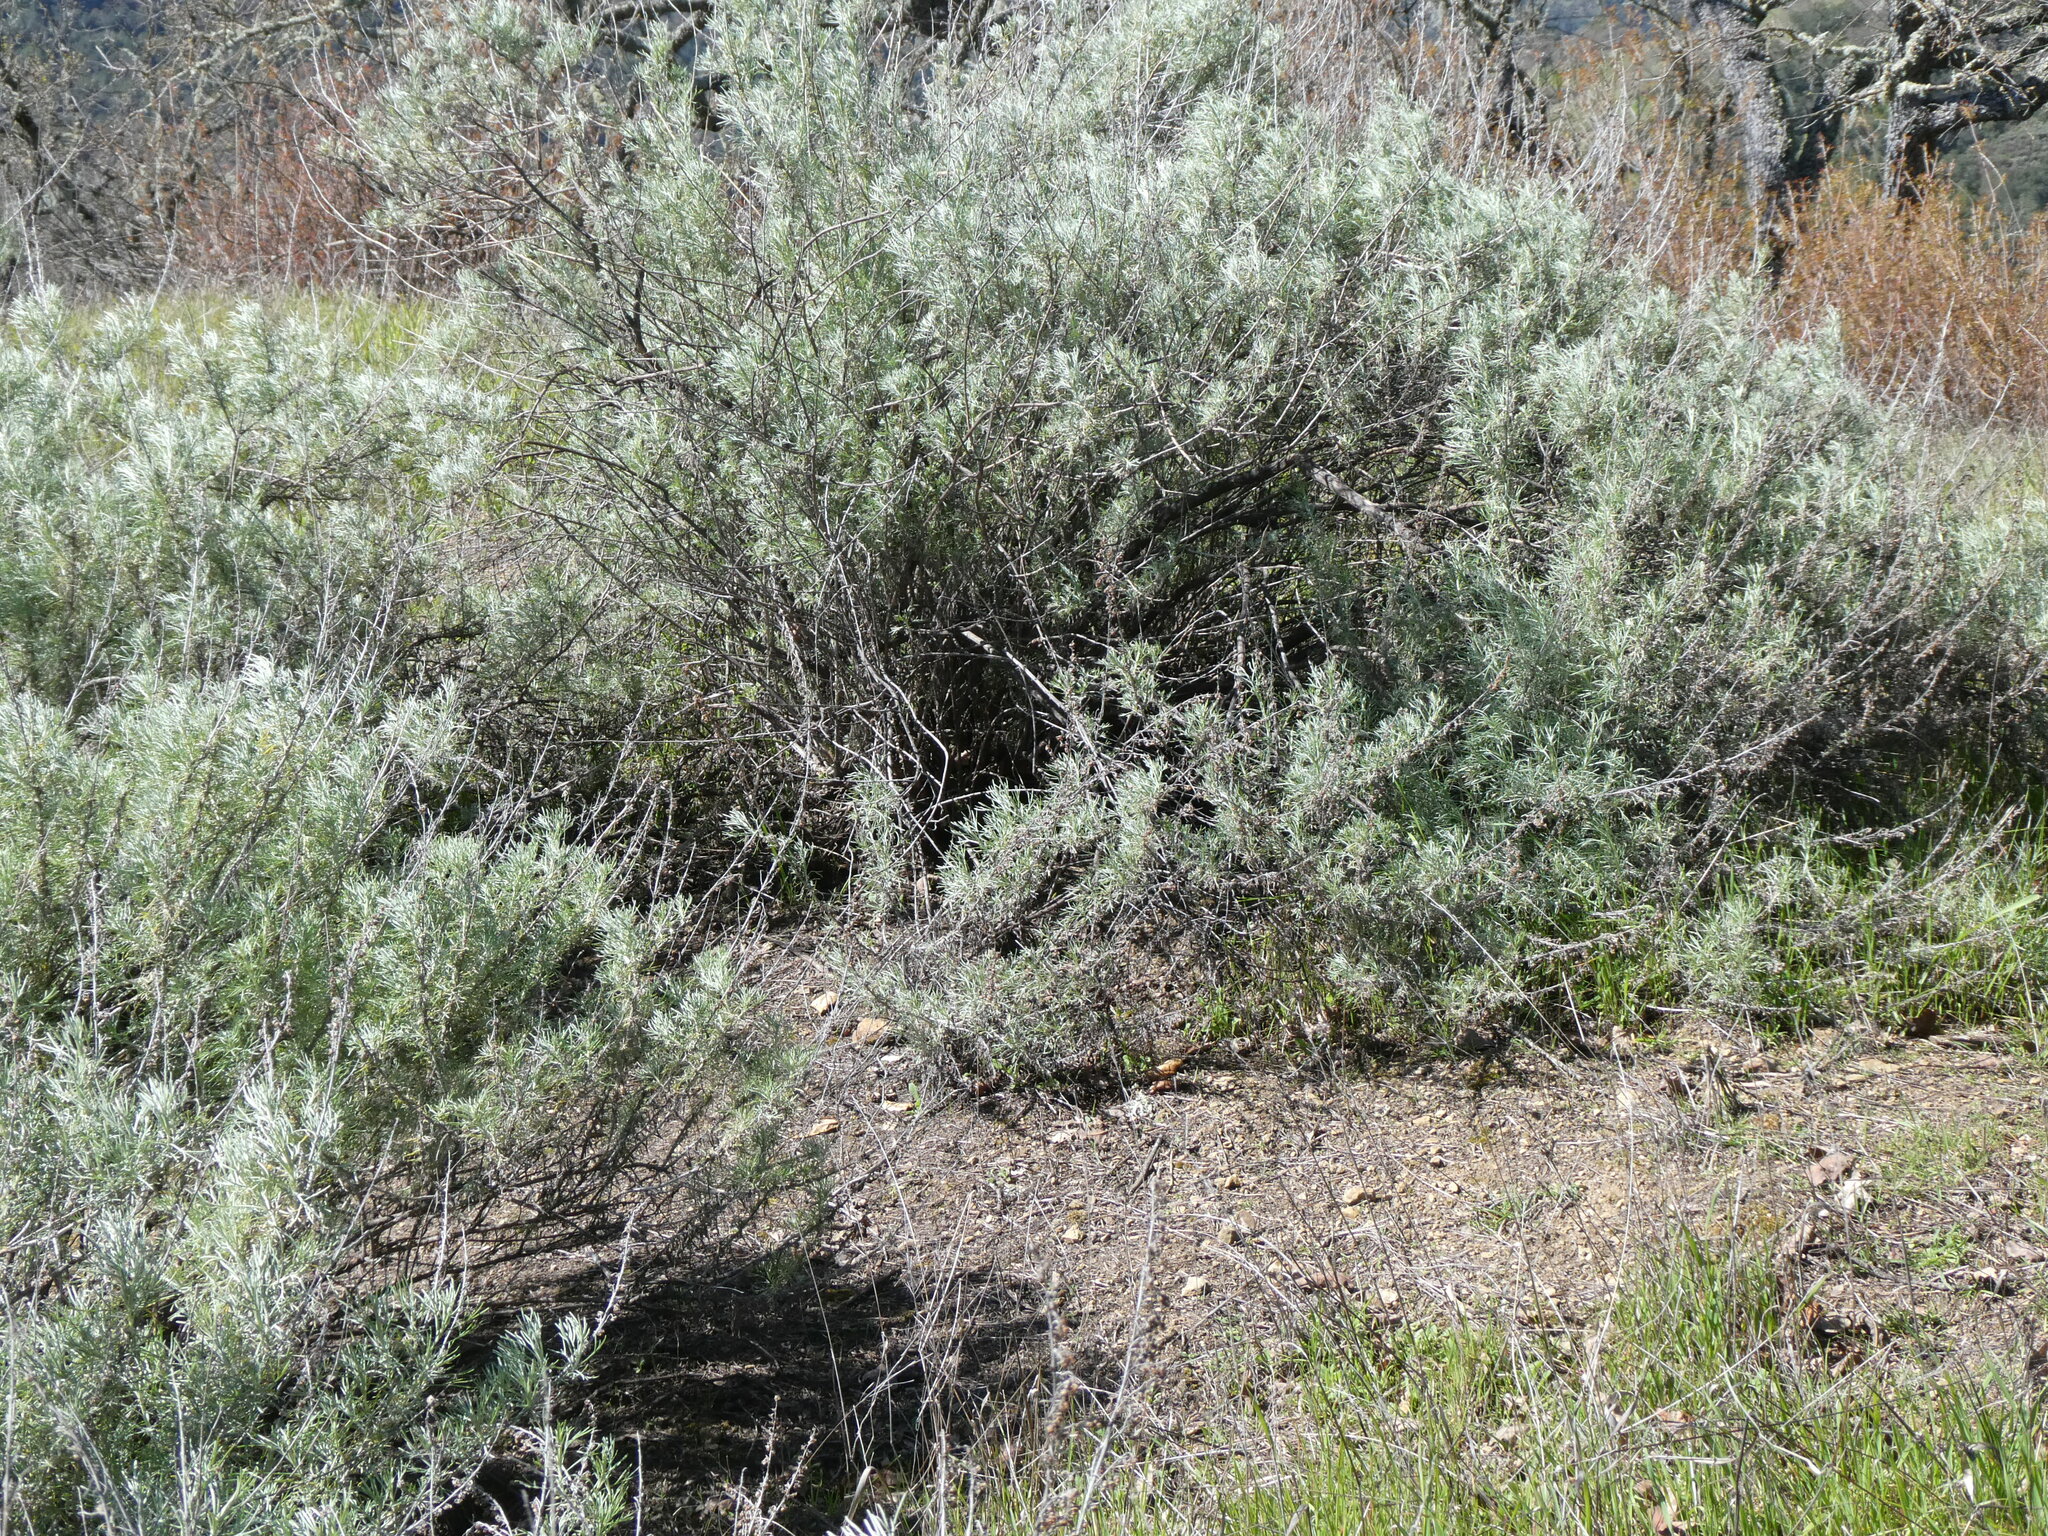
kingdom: Plantae
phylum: Tracheophyta
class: Magnoliopsida
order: Asterales
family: Asteraceae
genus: Artemisia
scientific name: Artemisia californica
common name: California sagebrush
